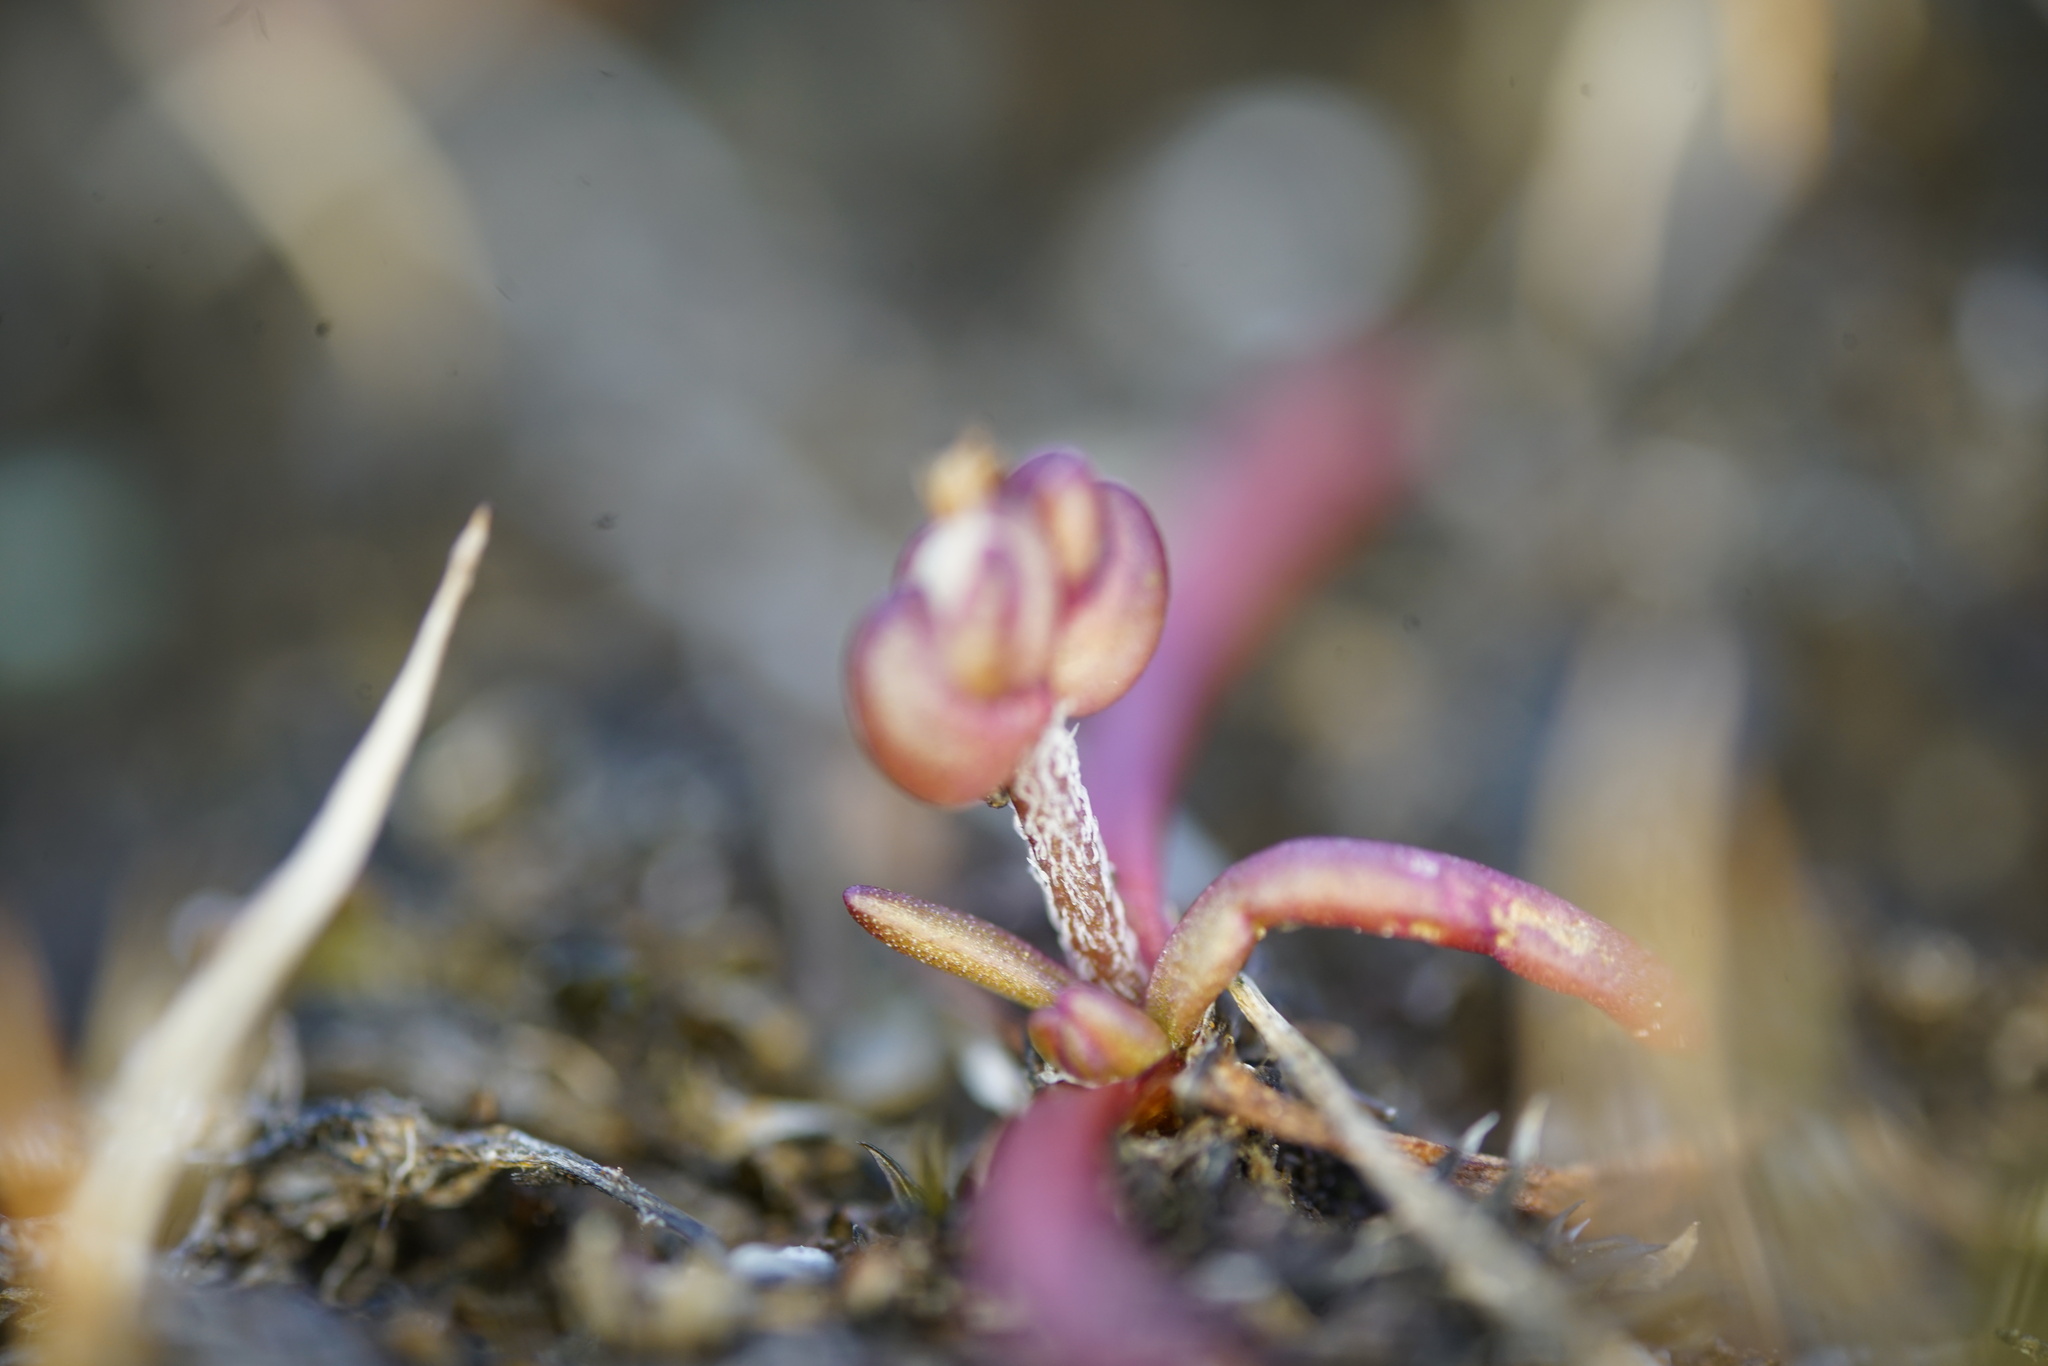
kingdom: Plantae
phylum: Tracheophyta
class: Magnoliopsida
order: Lamiales
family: Plantaginaceae
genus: Plantago
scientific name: Plantago elongata
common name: Linear-leaved plantain
